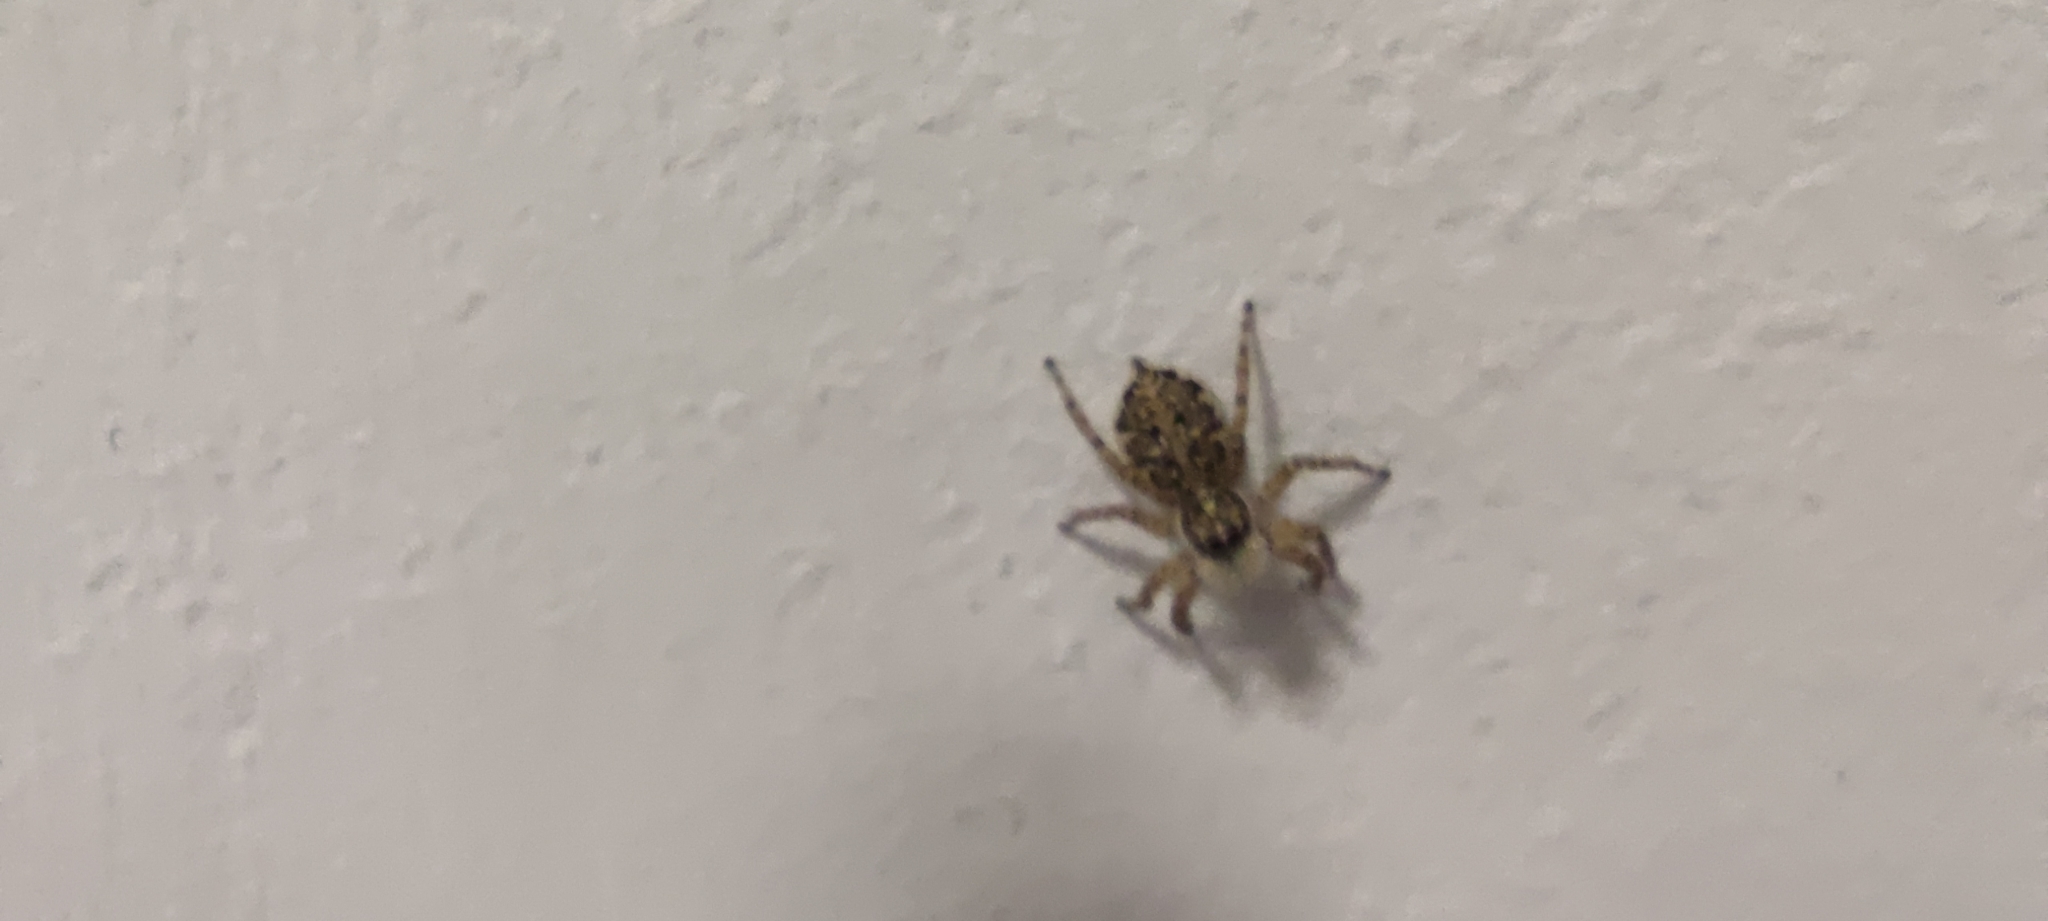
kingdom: Animalia
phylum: Arthropoda
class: Arachnida
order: Araneae
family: Salticidae
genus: Menemerus
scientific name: Menemerus semilimbatus
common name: Jumping spider
